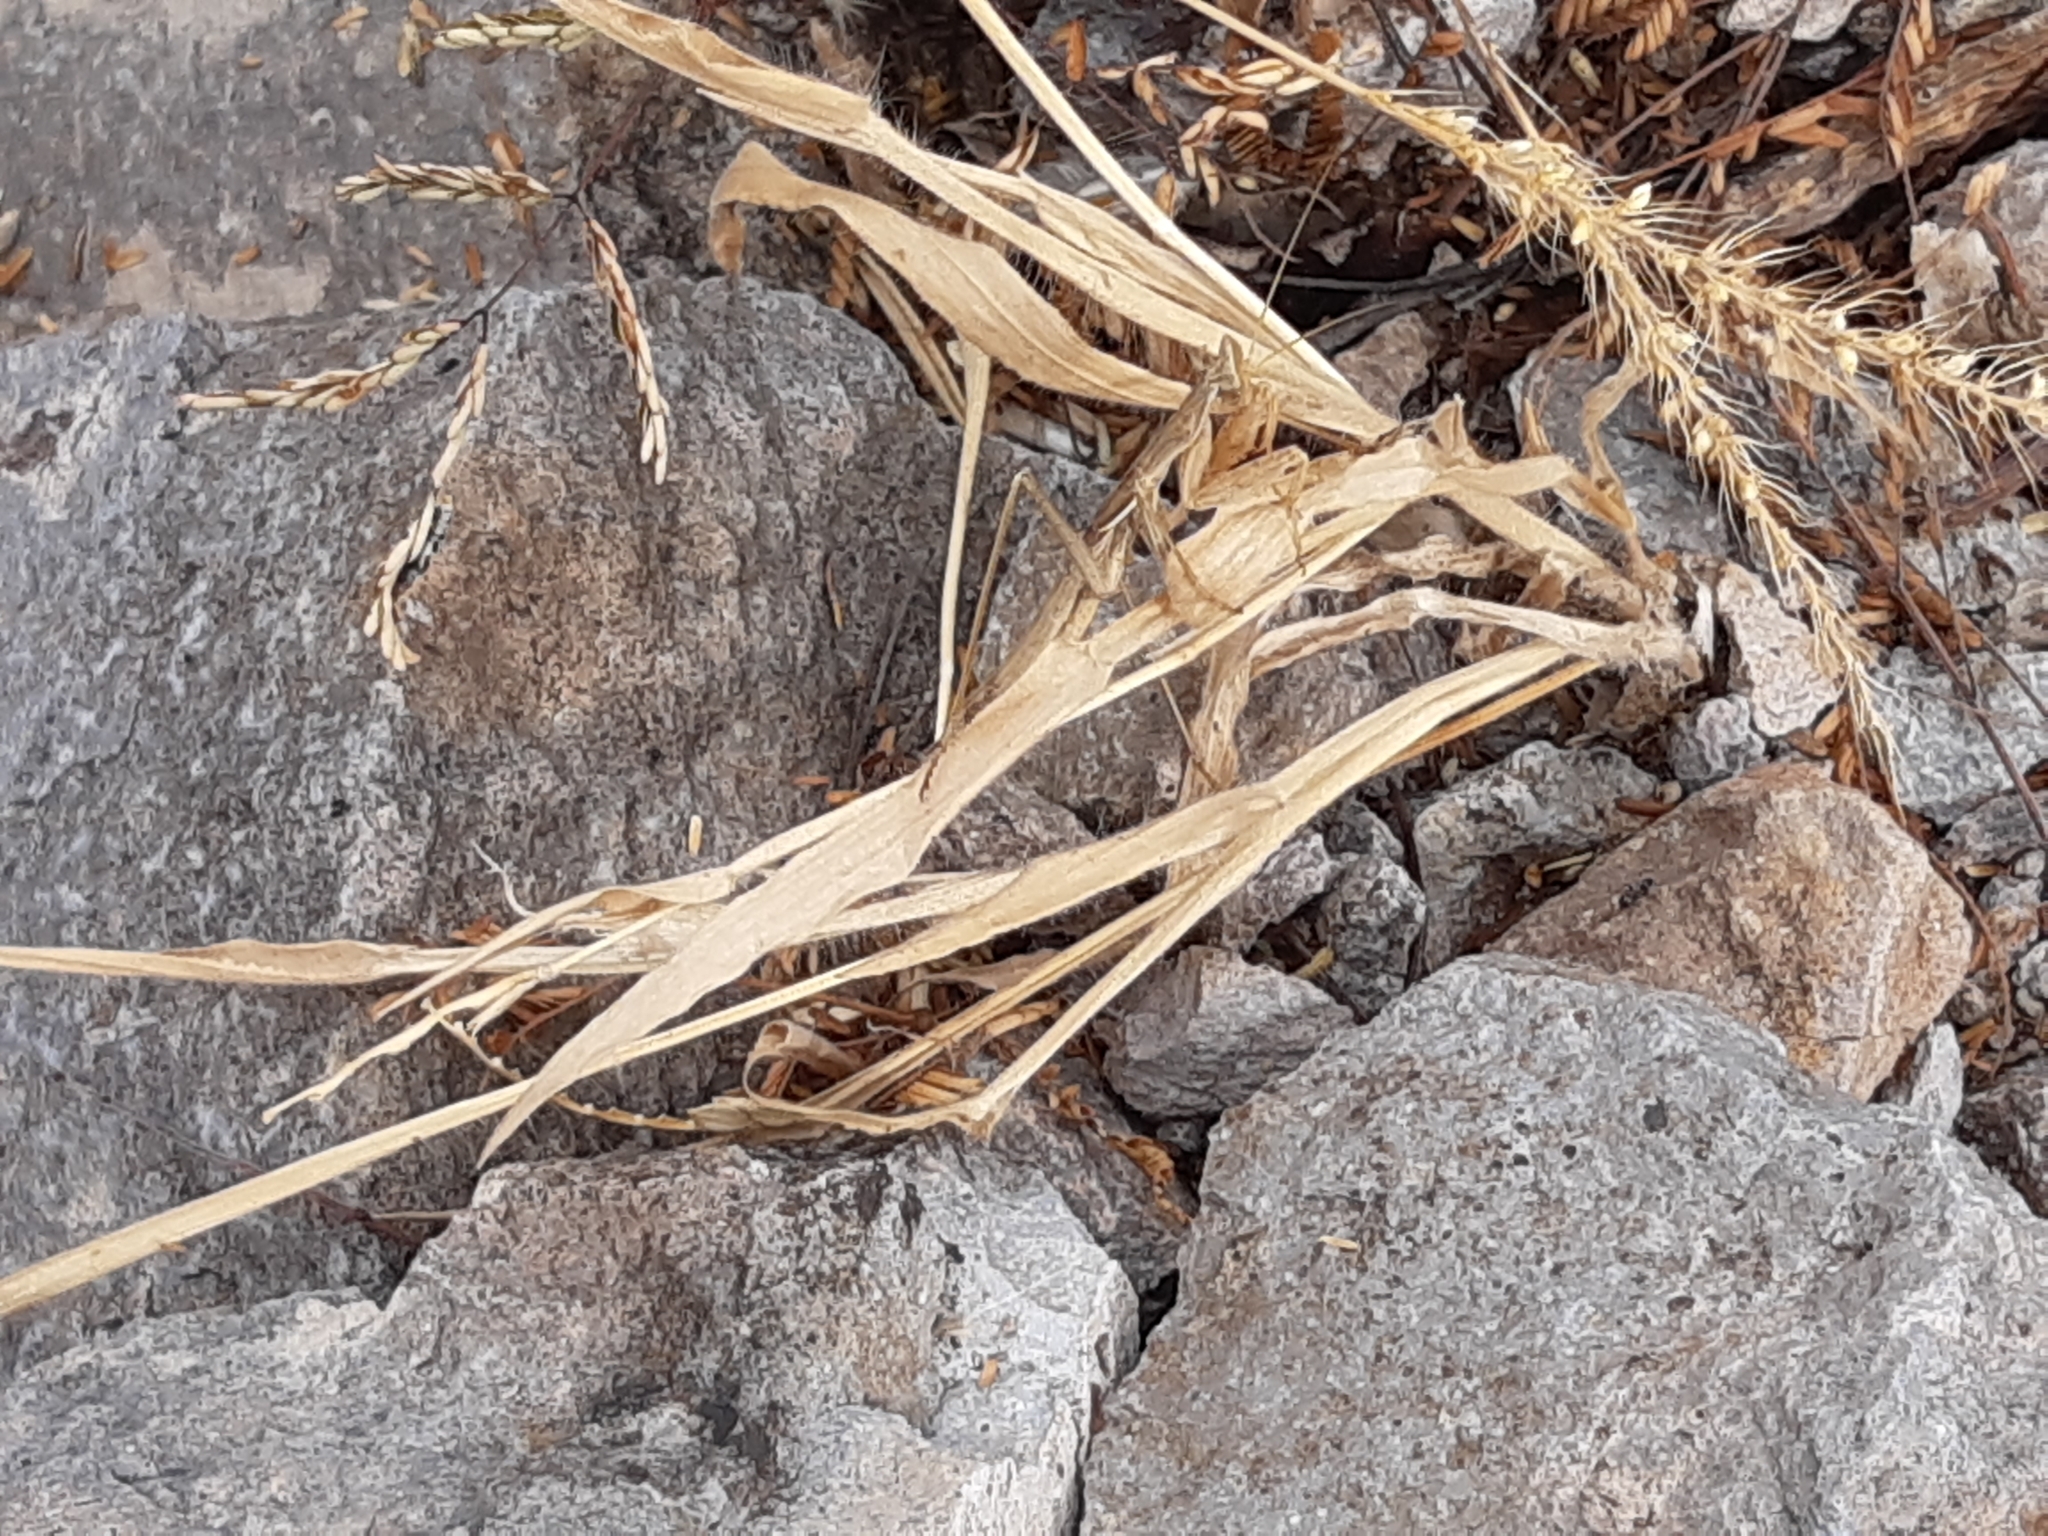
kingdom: Animalia
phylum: Arthropoda
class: Insecta
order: Mantodea
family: Amelidae
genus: Yersinia
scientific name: Yersinia mexicana
